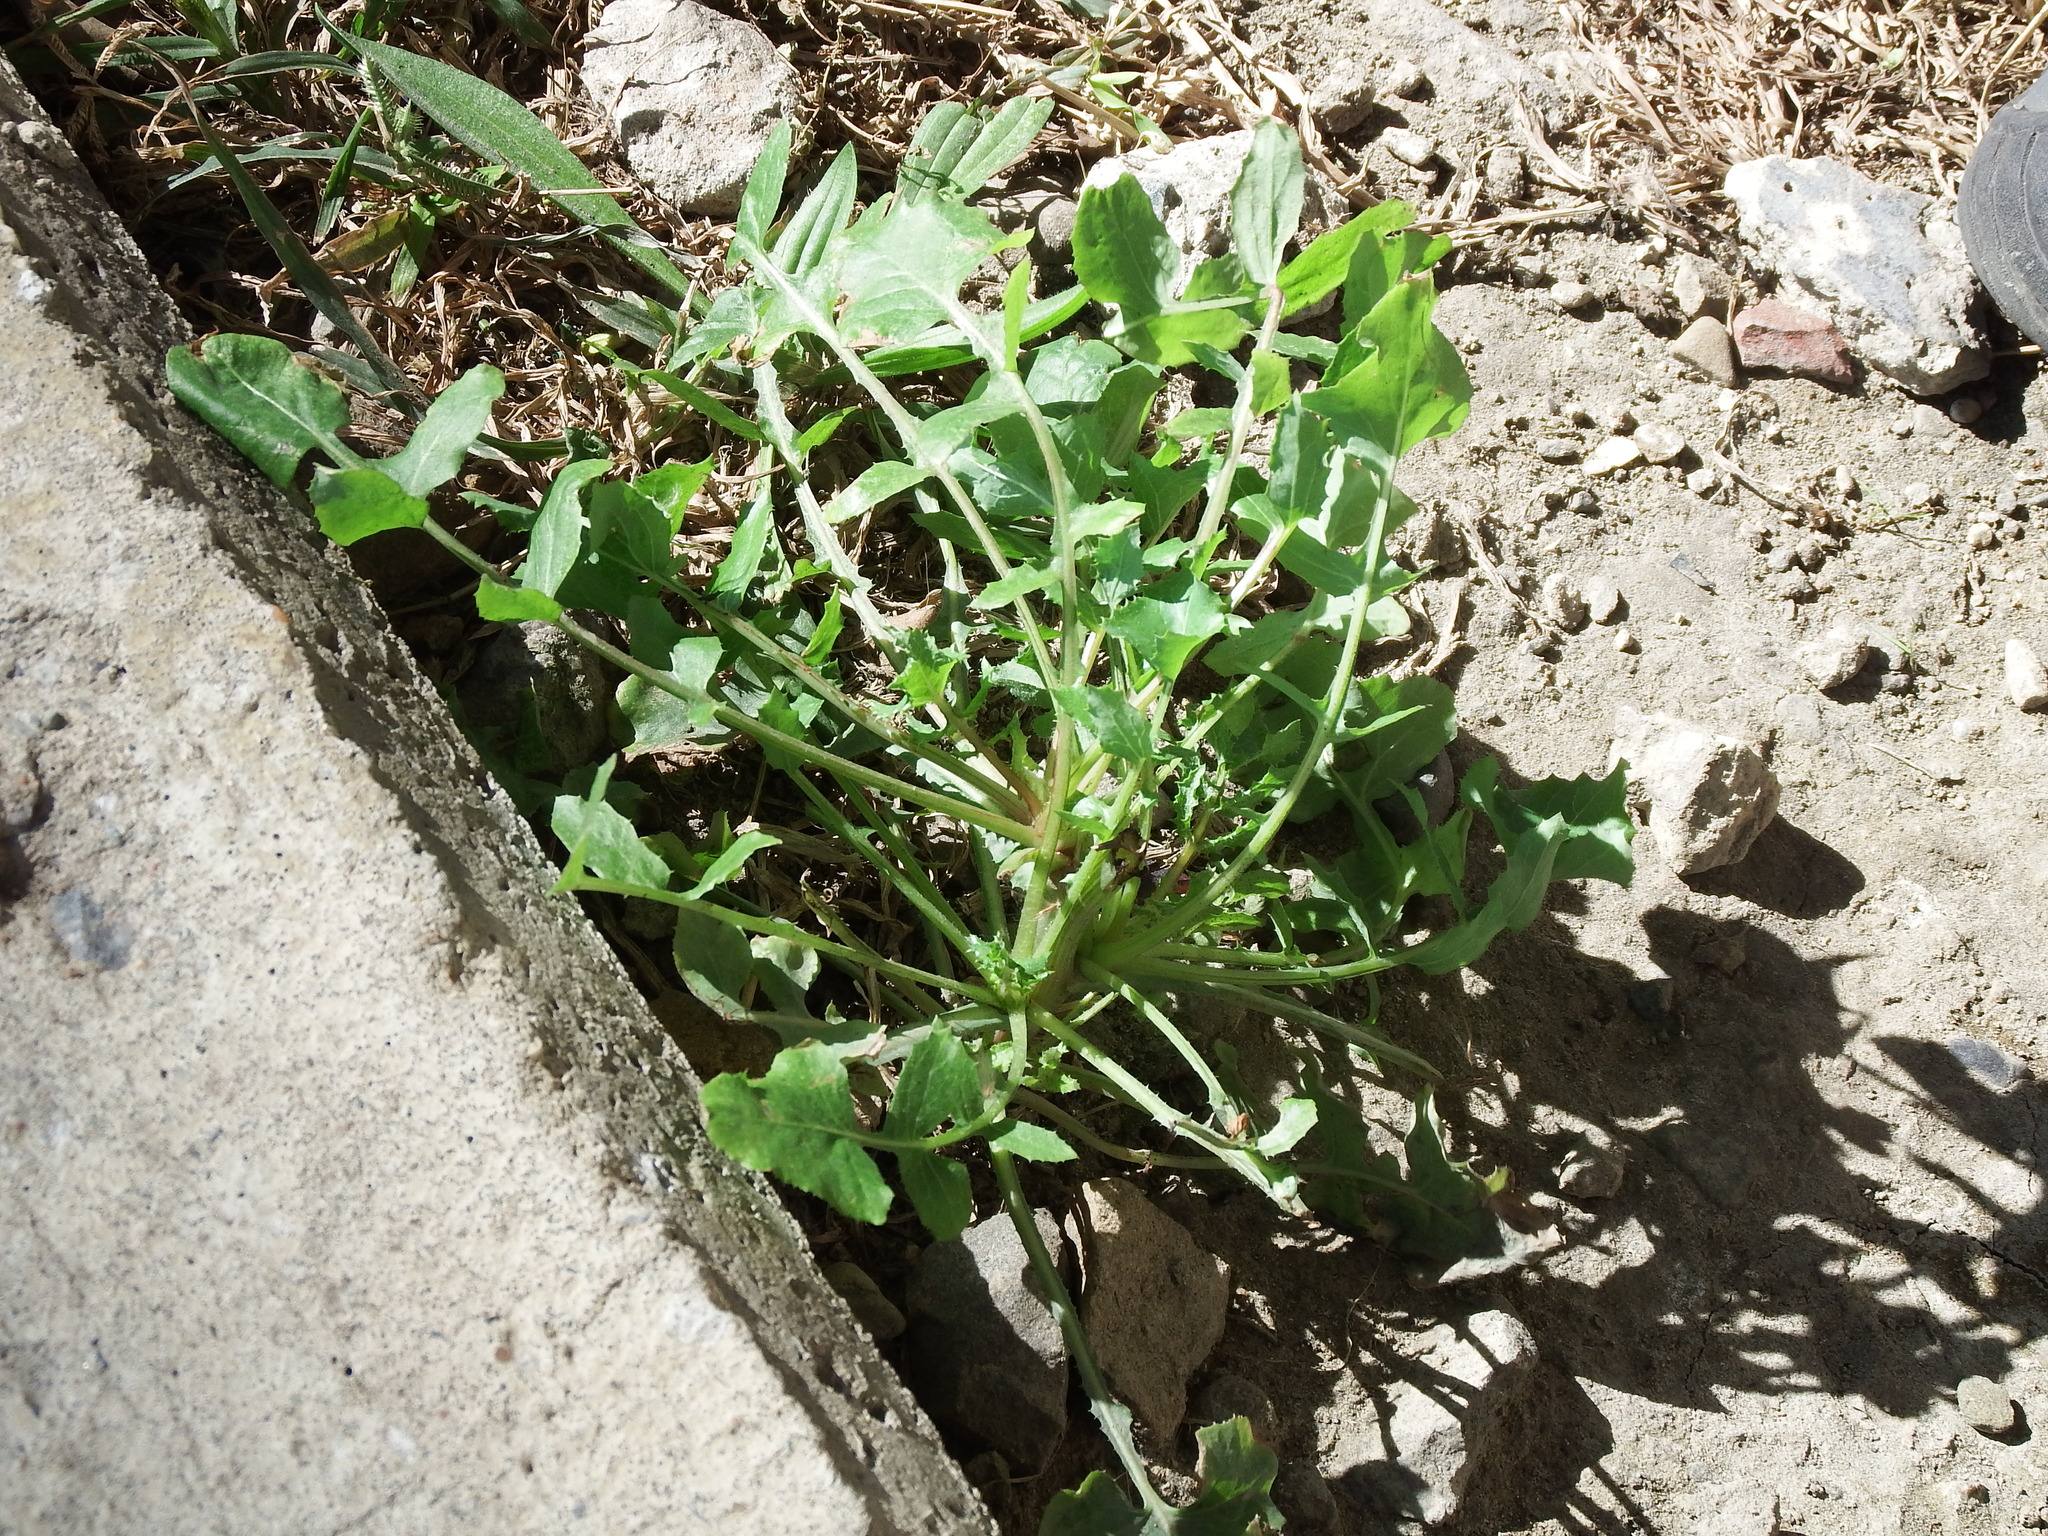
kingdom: Plantae
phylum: Tracheophyta
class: Magnoliopsida
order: Asterales
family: Asteraceae
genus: Taraxacum
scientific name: Taraxacum officinale
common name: Common dandelion
